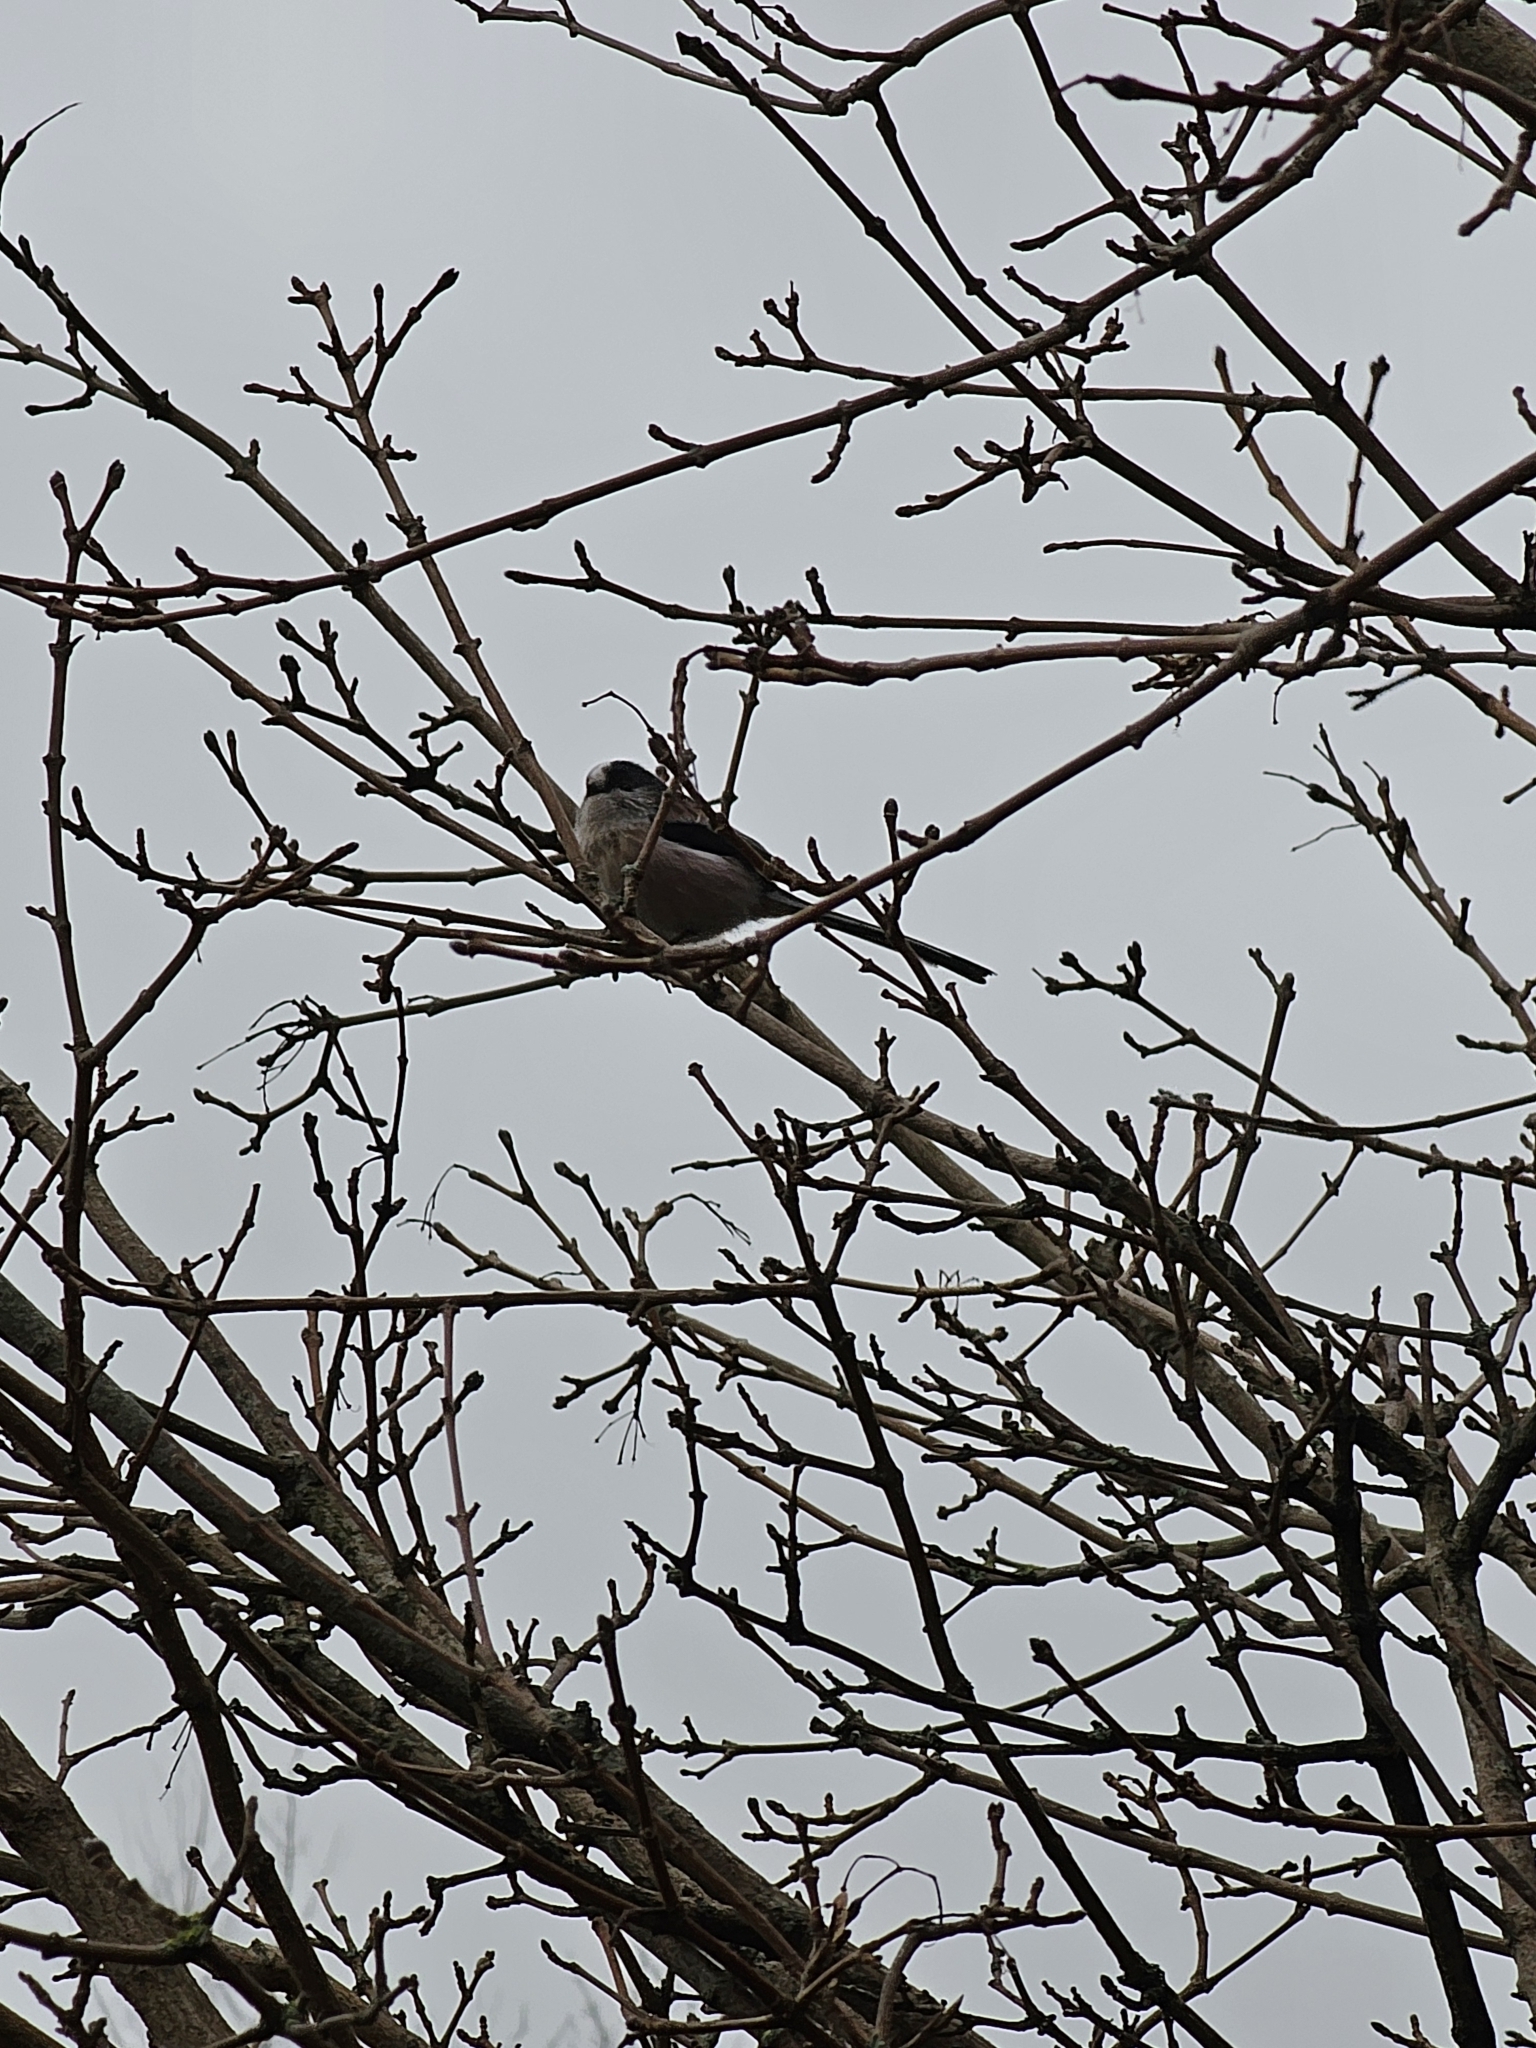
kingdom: Animalia
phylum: Chordata
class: Aves
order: Passeriformes
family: Aegithalidae
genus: Aegithalos
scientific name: Aegithalos caudatus
